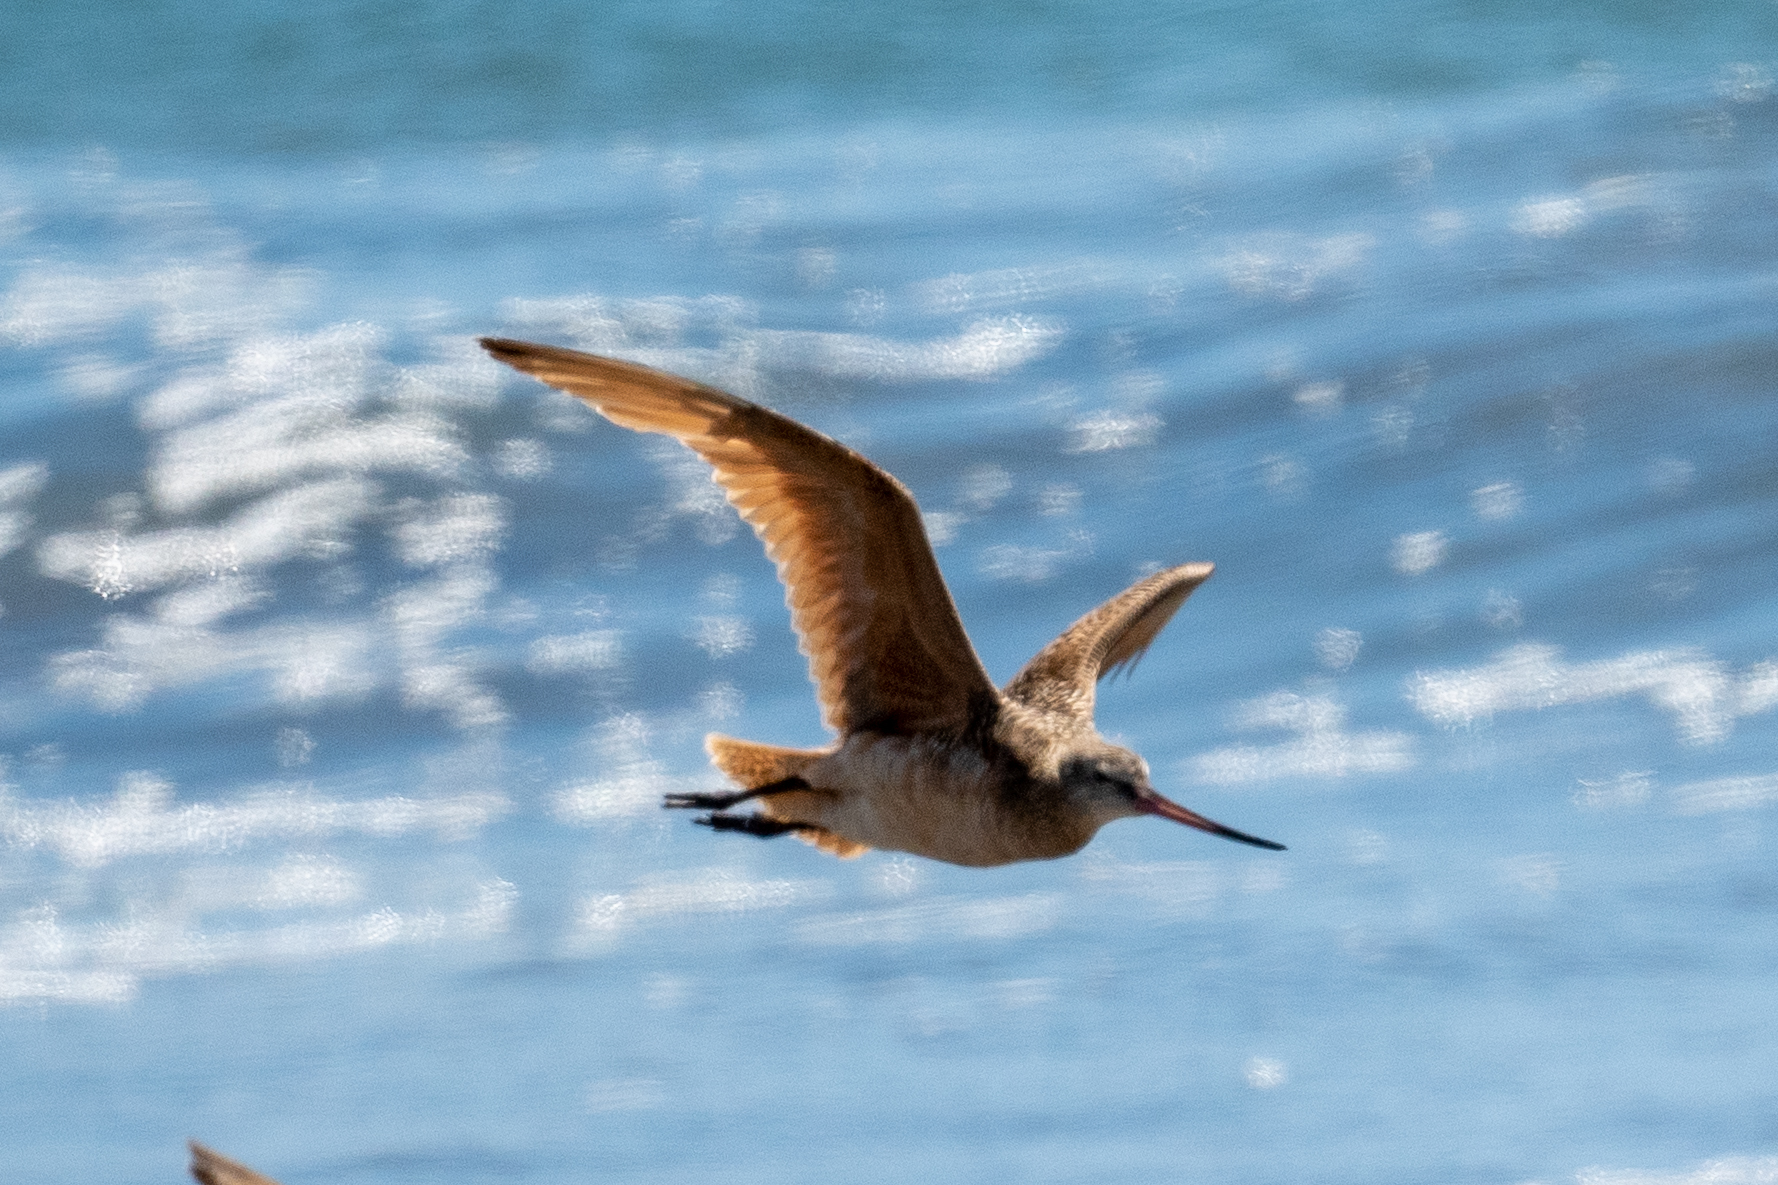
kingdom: Animalia
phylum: Chordata
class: Aves
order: Charadriiformes
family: Scolopacidae
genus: Limosa
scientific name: Limosa fedoa
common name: Marbled godwit
